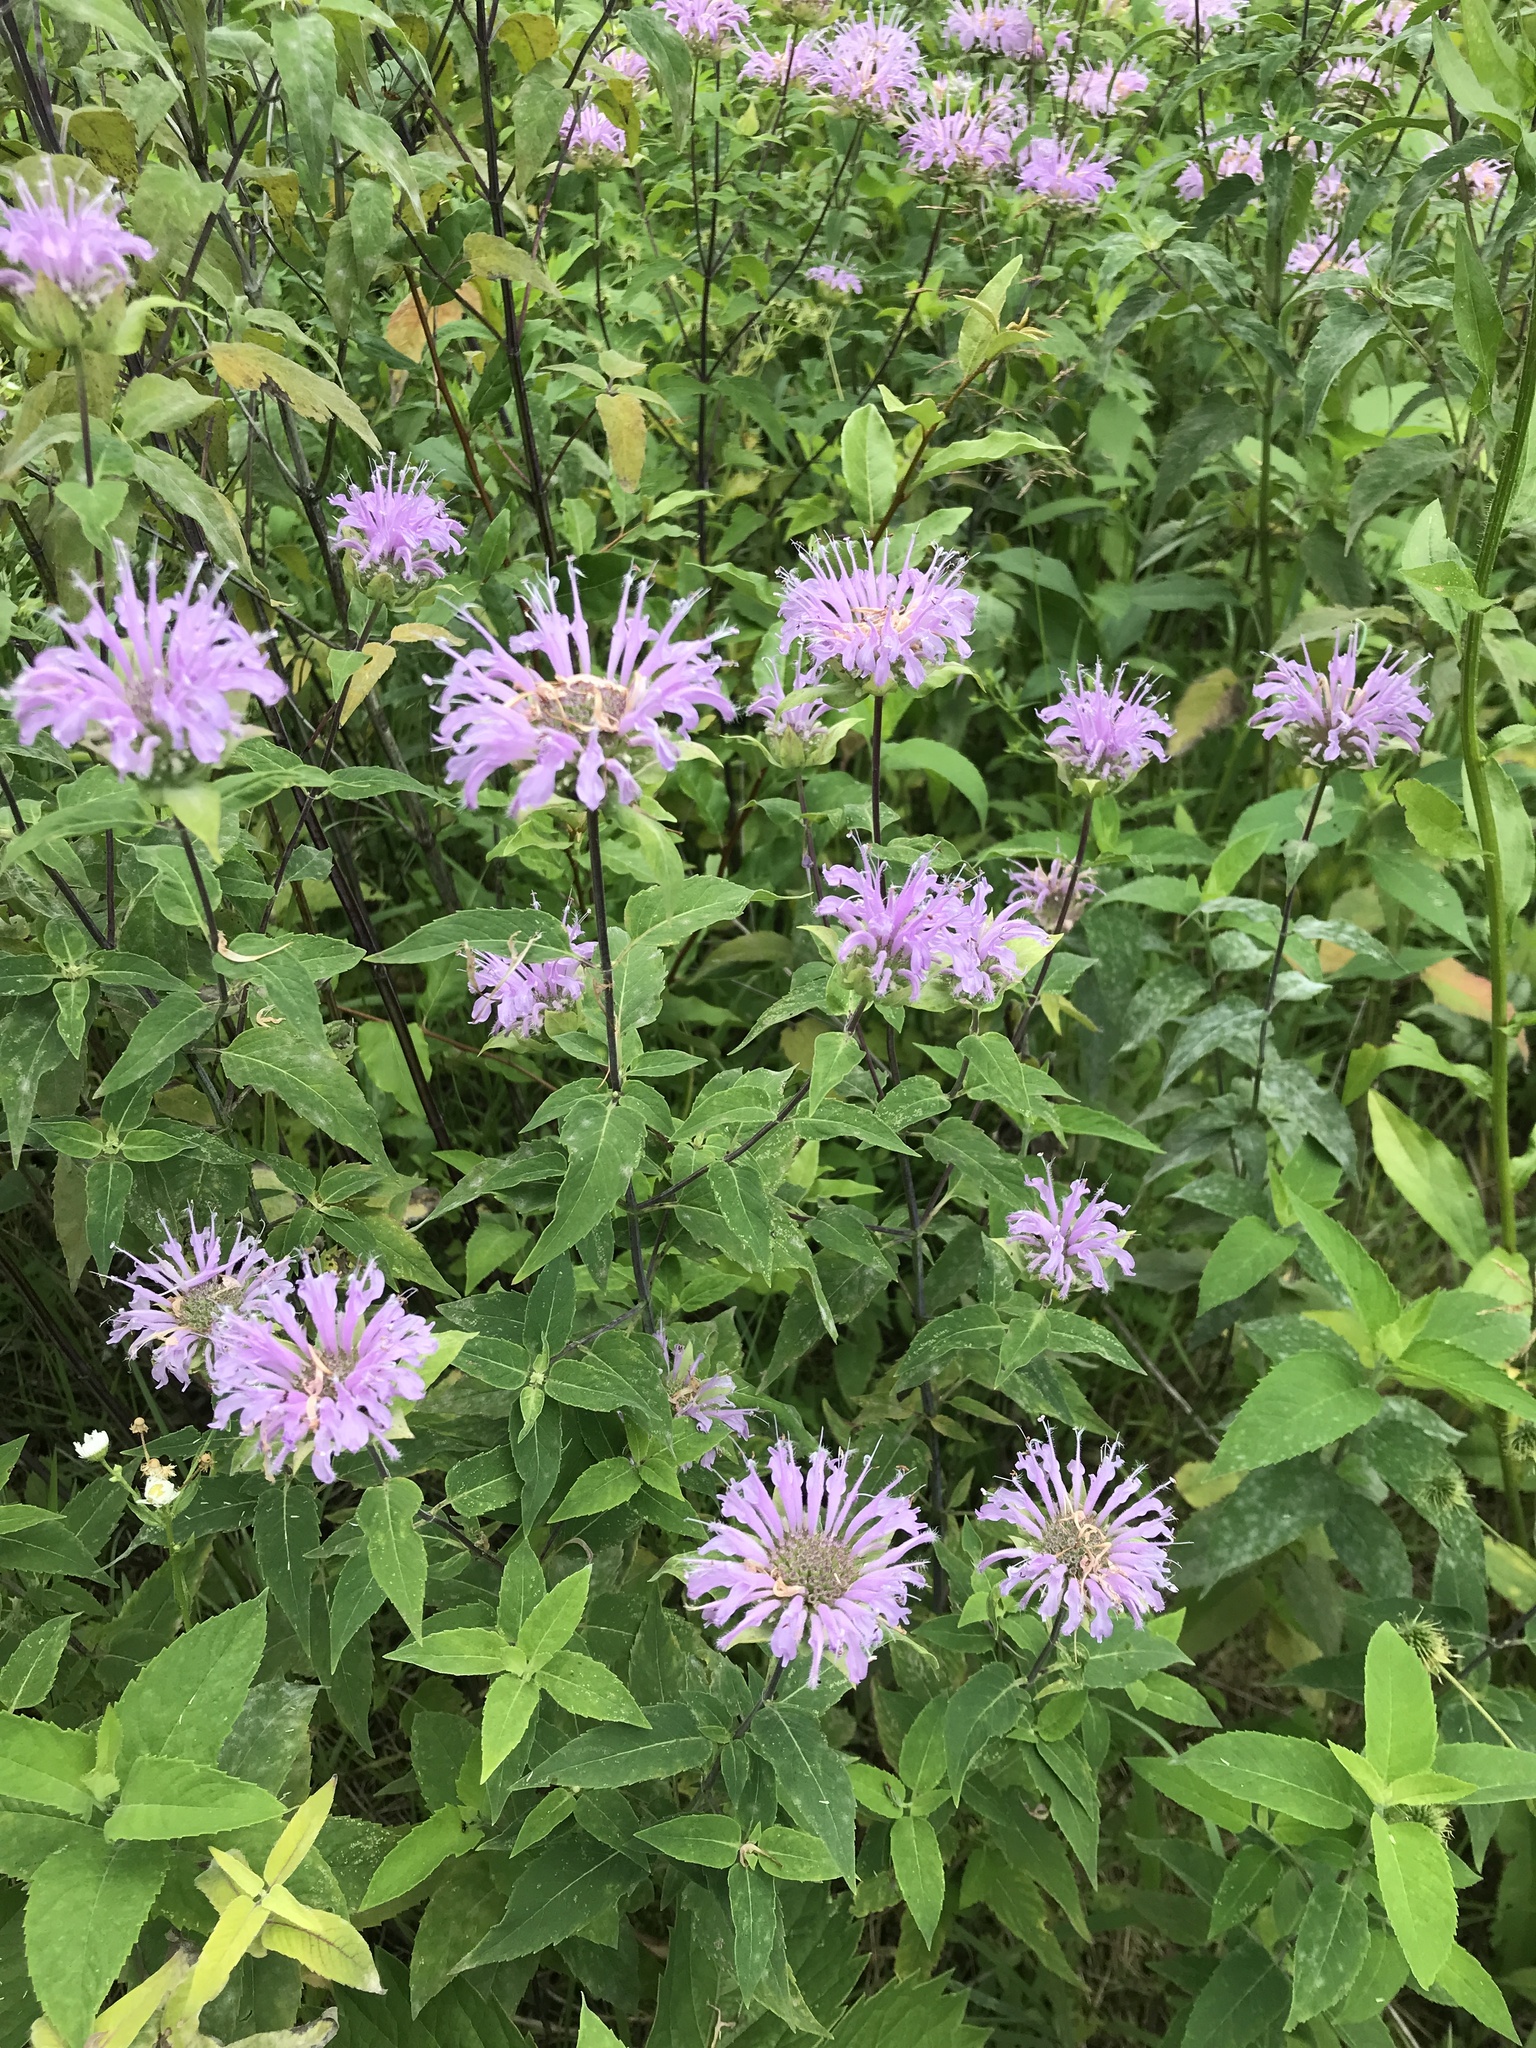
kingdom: Plantae
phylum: Tracheophyta
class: Magnoliopsida
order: Lamiales
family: Lamiaceae
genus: Monarda
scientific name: Monarda fistulosa
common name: Purple beebalm
